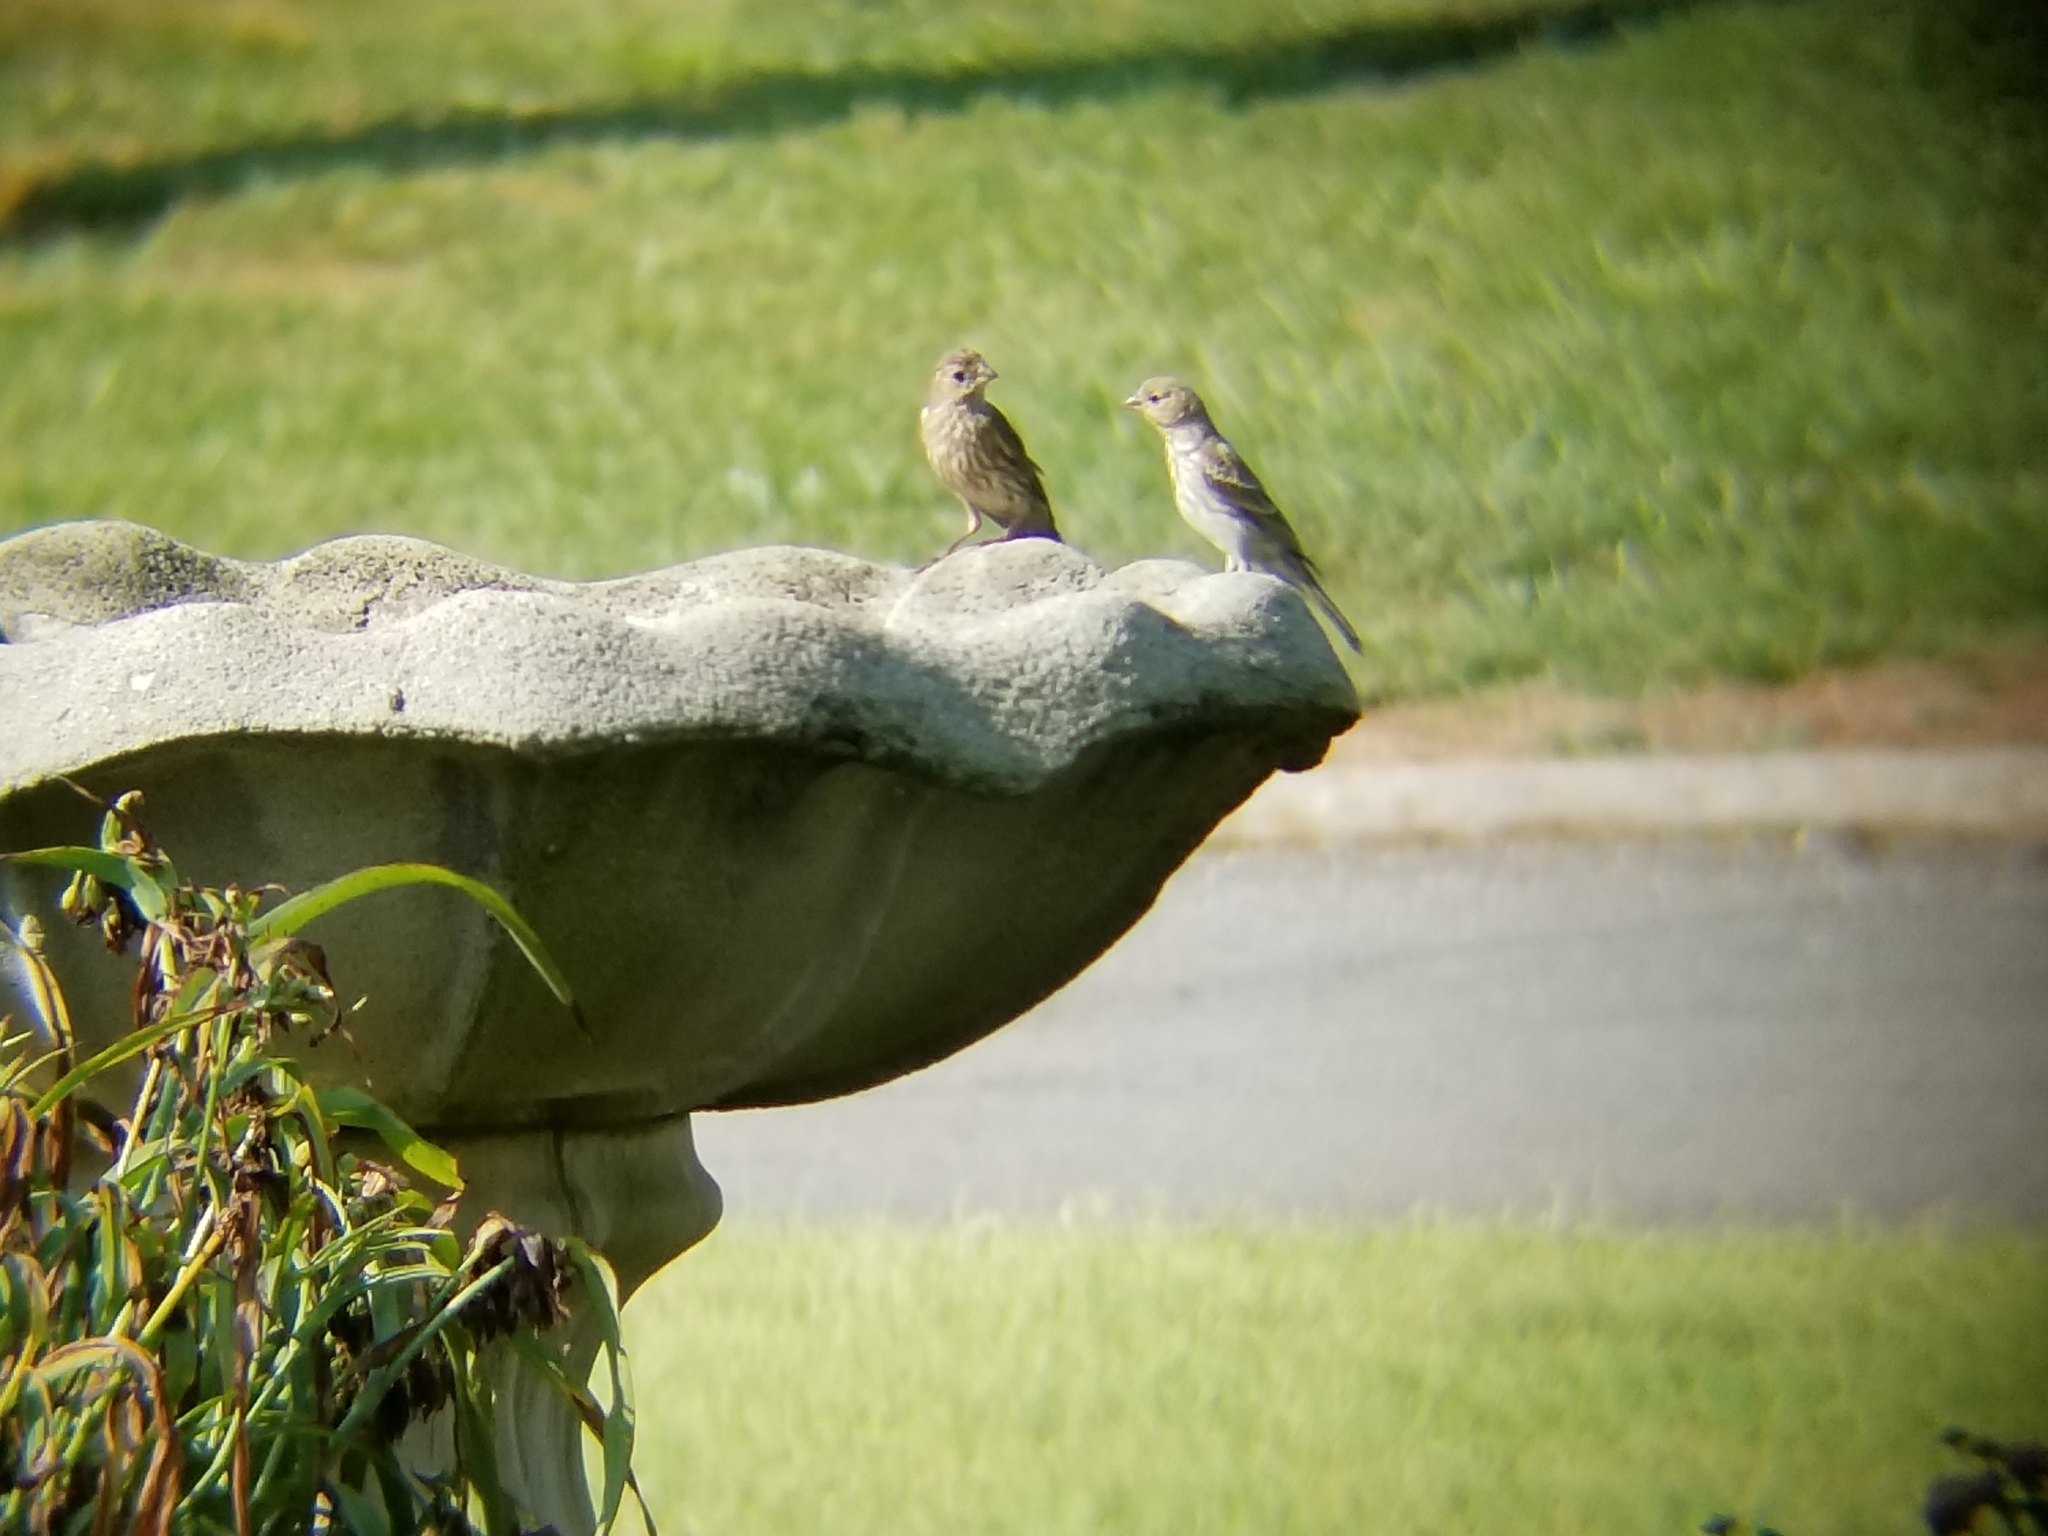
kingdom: Animalia
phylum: Chordata
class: Aves
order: Passeriformes
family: Fringillidae
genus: Haemorhous
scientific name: Haemorhous mexicanus
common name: House finch
